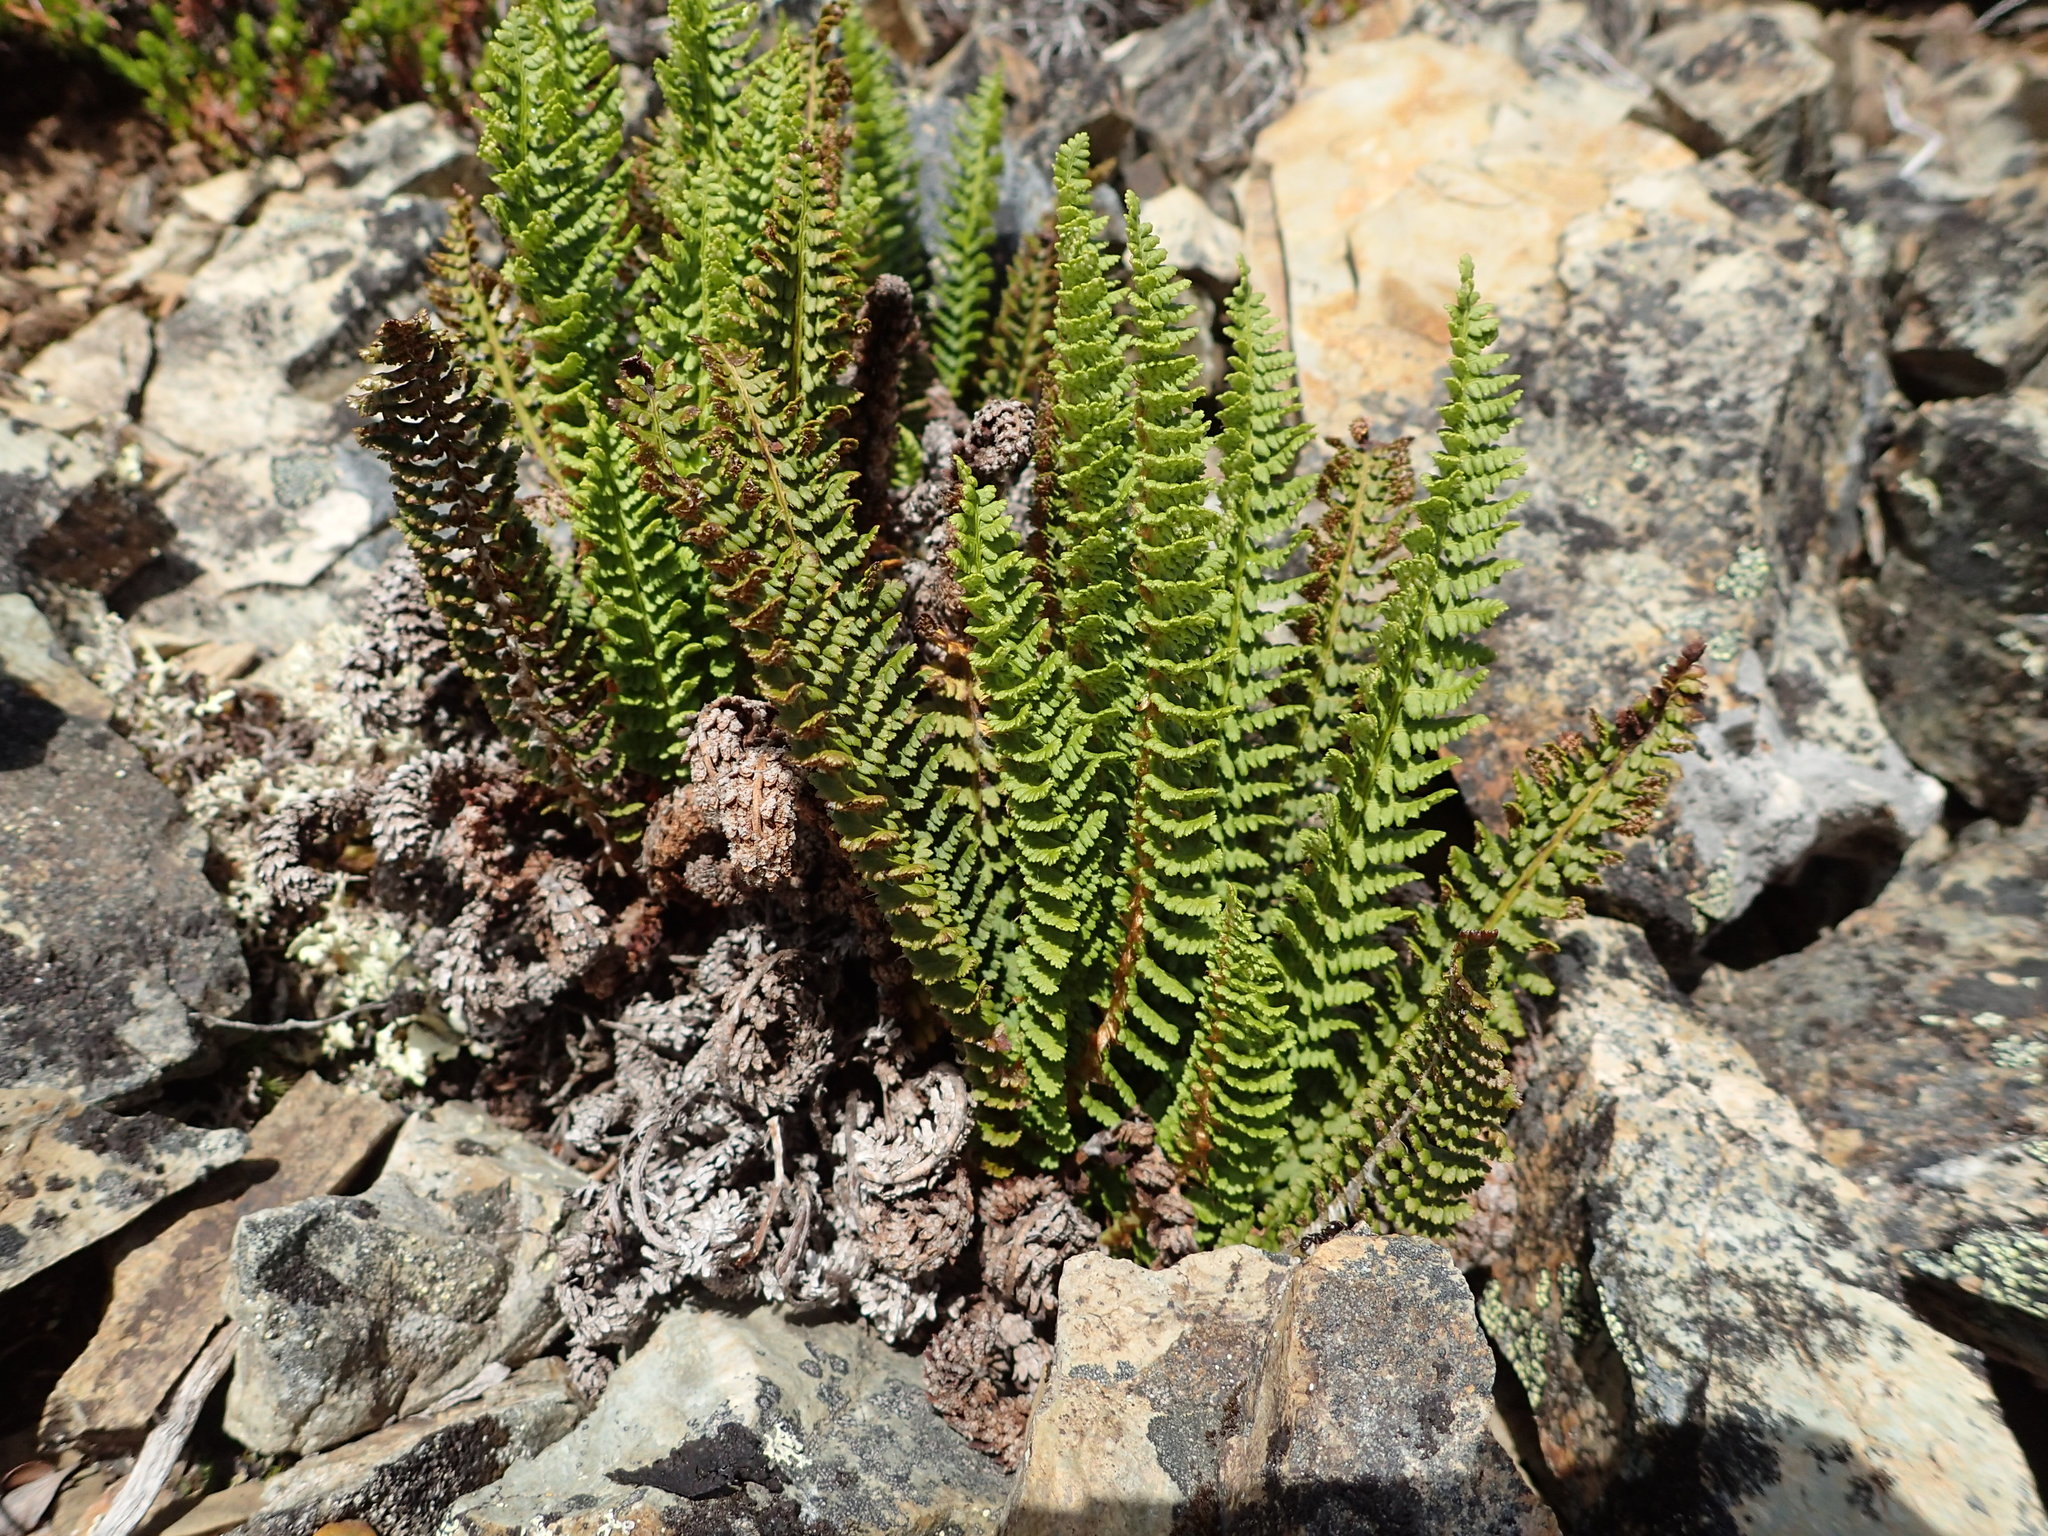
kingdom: Plantae
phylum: Tracheophyta
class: Polypodiopsida
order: Polypodiales
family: Dryopteridaceae
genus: Dryopteris
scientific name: Dryopteris fragrans
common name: Fragrant wood fern
